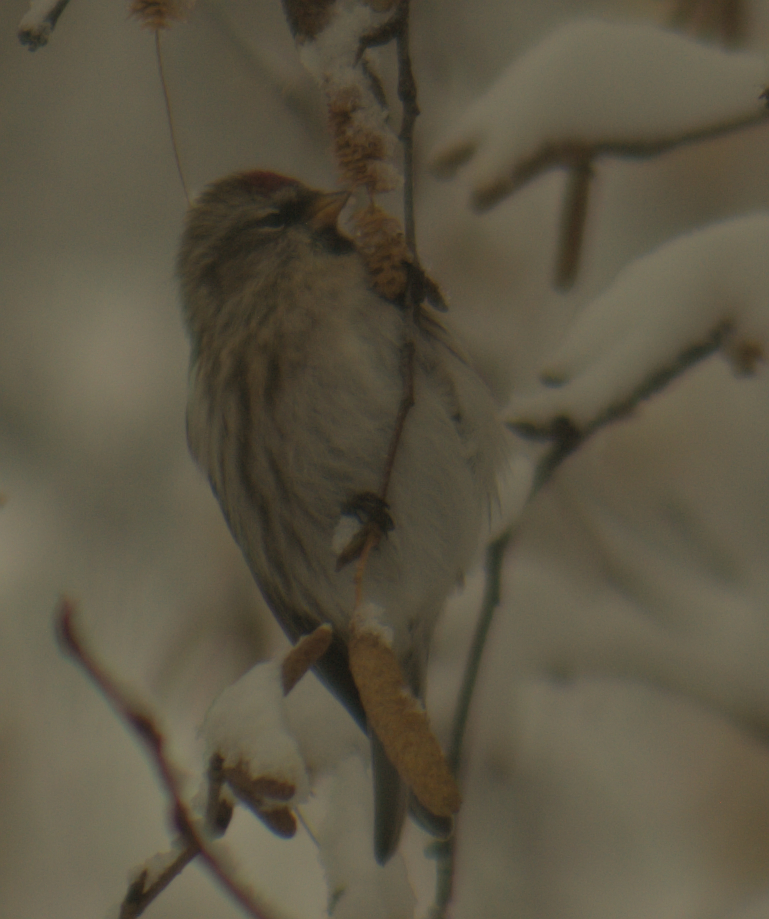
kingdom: Animalia
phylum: Chordata
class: Aves
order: Passeriformes
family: Fringillidae
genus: Acanthis
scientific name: Acanthis flammea
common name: Common redpoll
